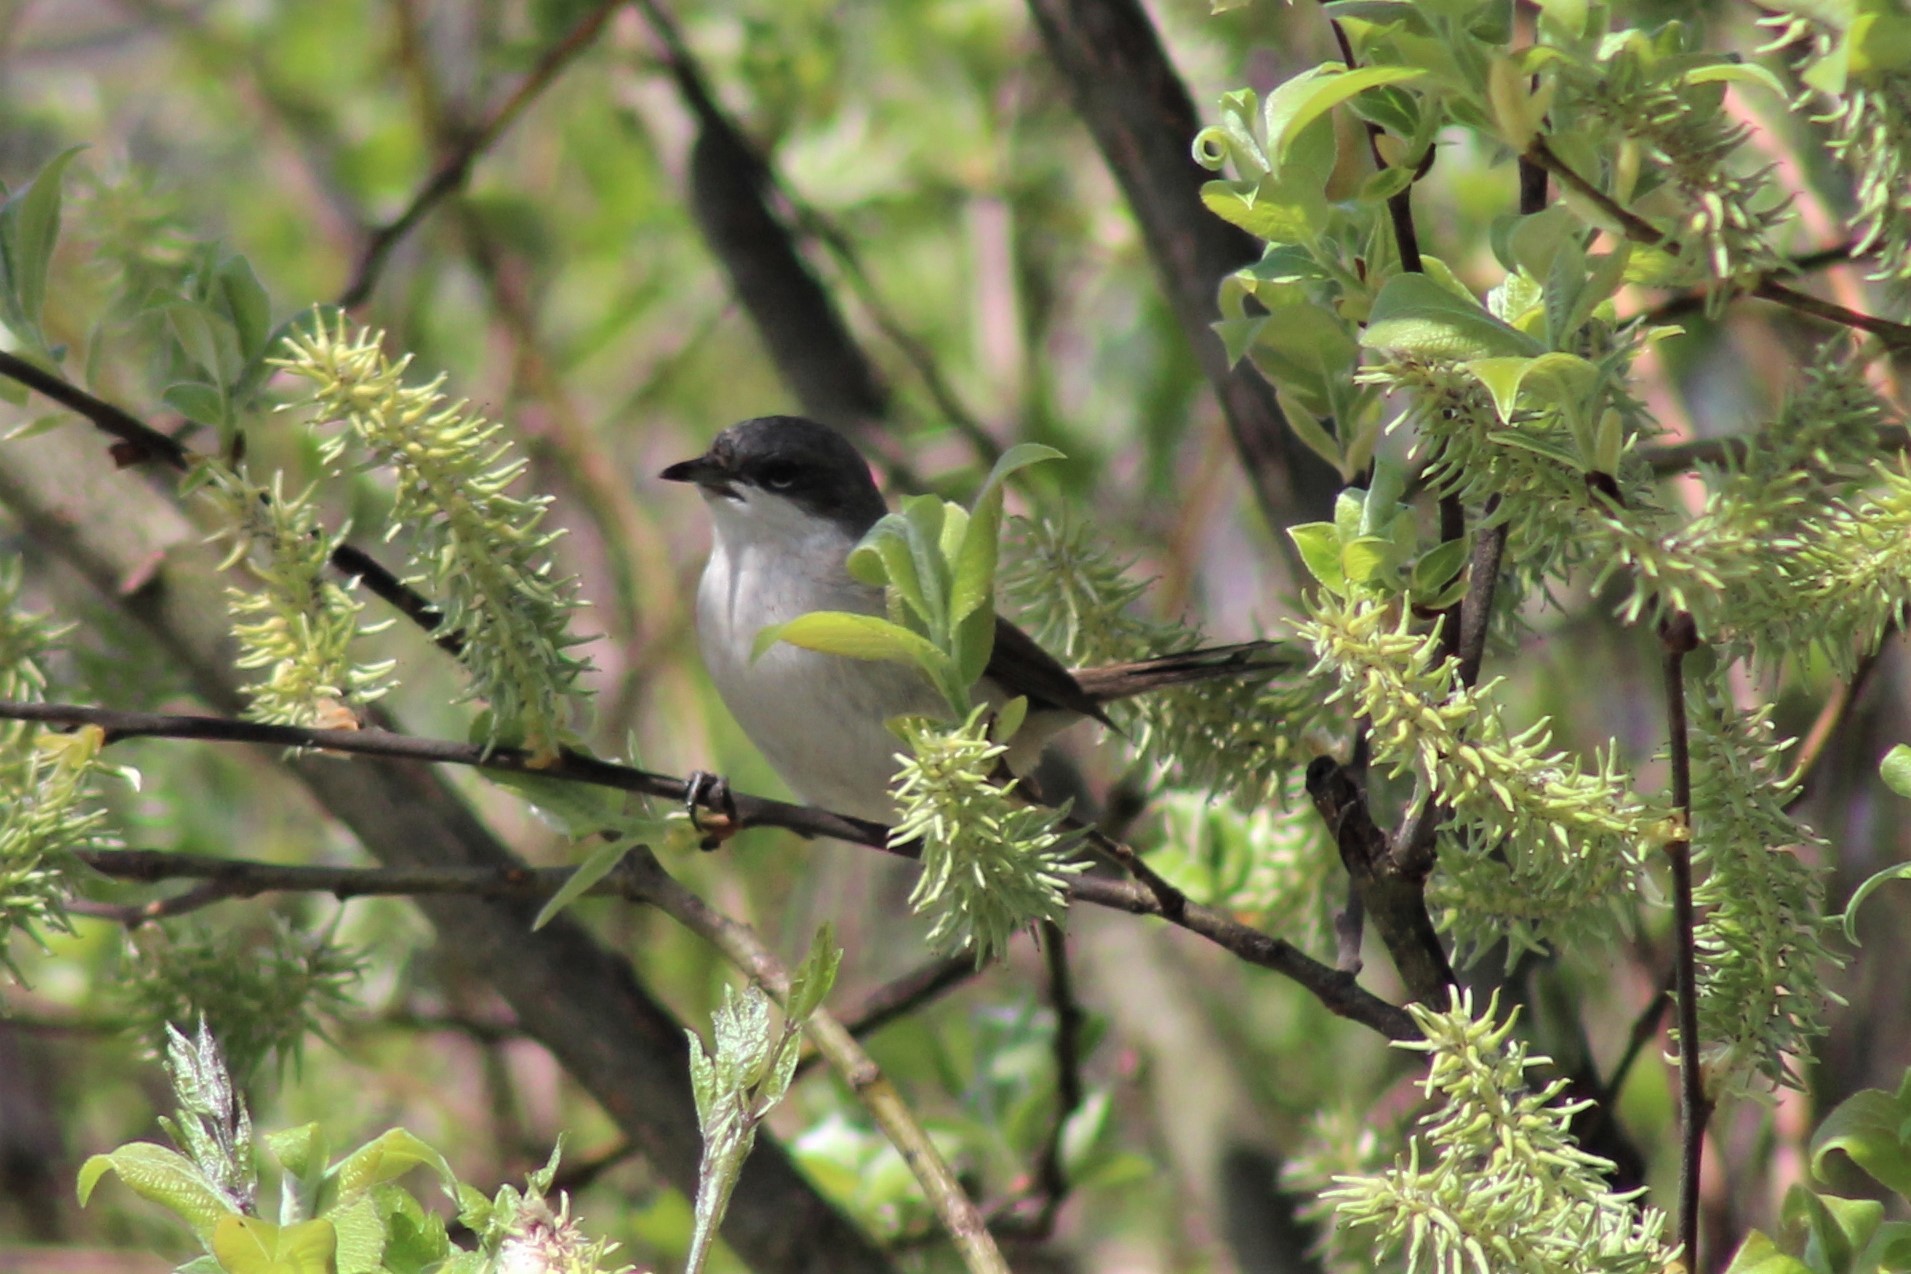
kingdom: Animalia
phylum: Chordata
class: Aves
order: Passeriformes
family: Sylviidae
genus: Sylvia
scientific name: Sylvia curruca
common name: Lesser whitethroat
